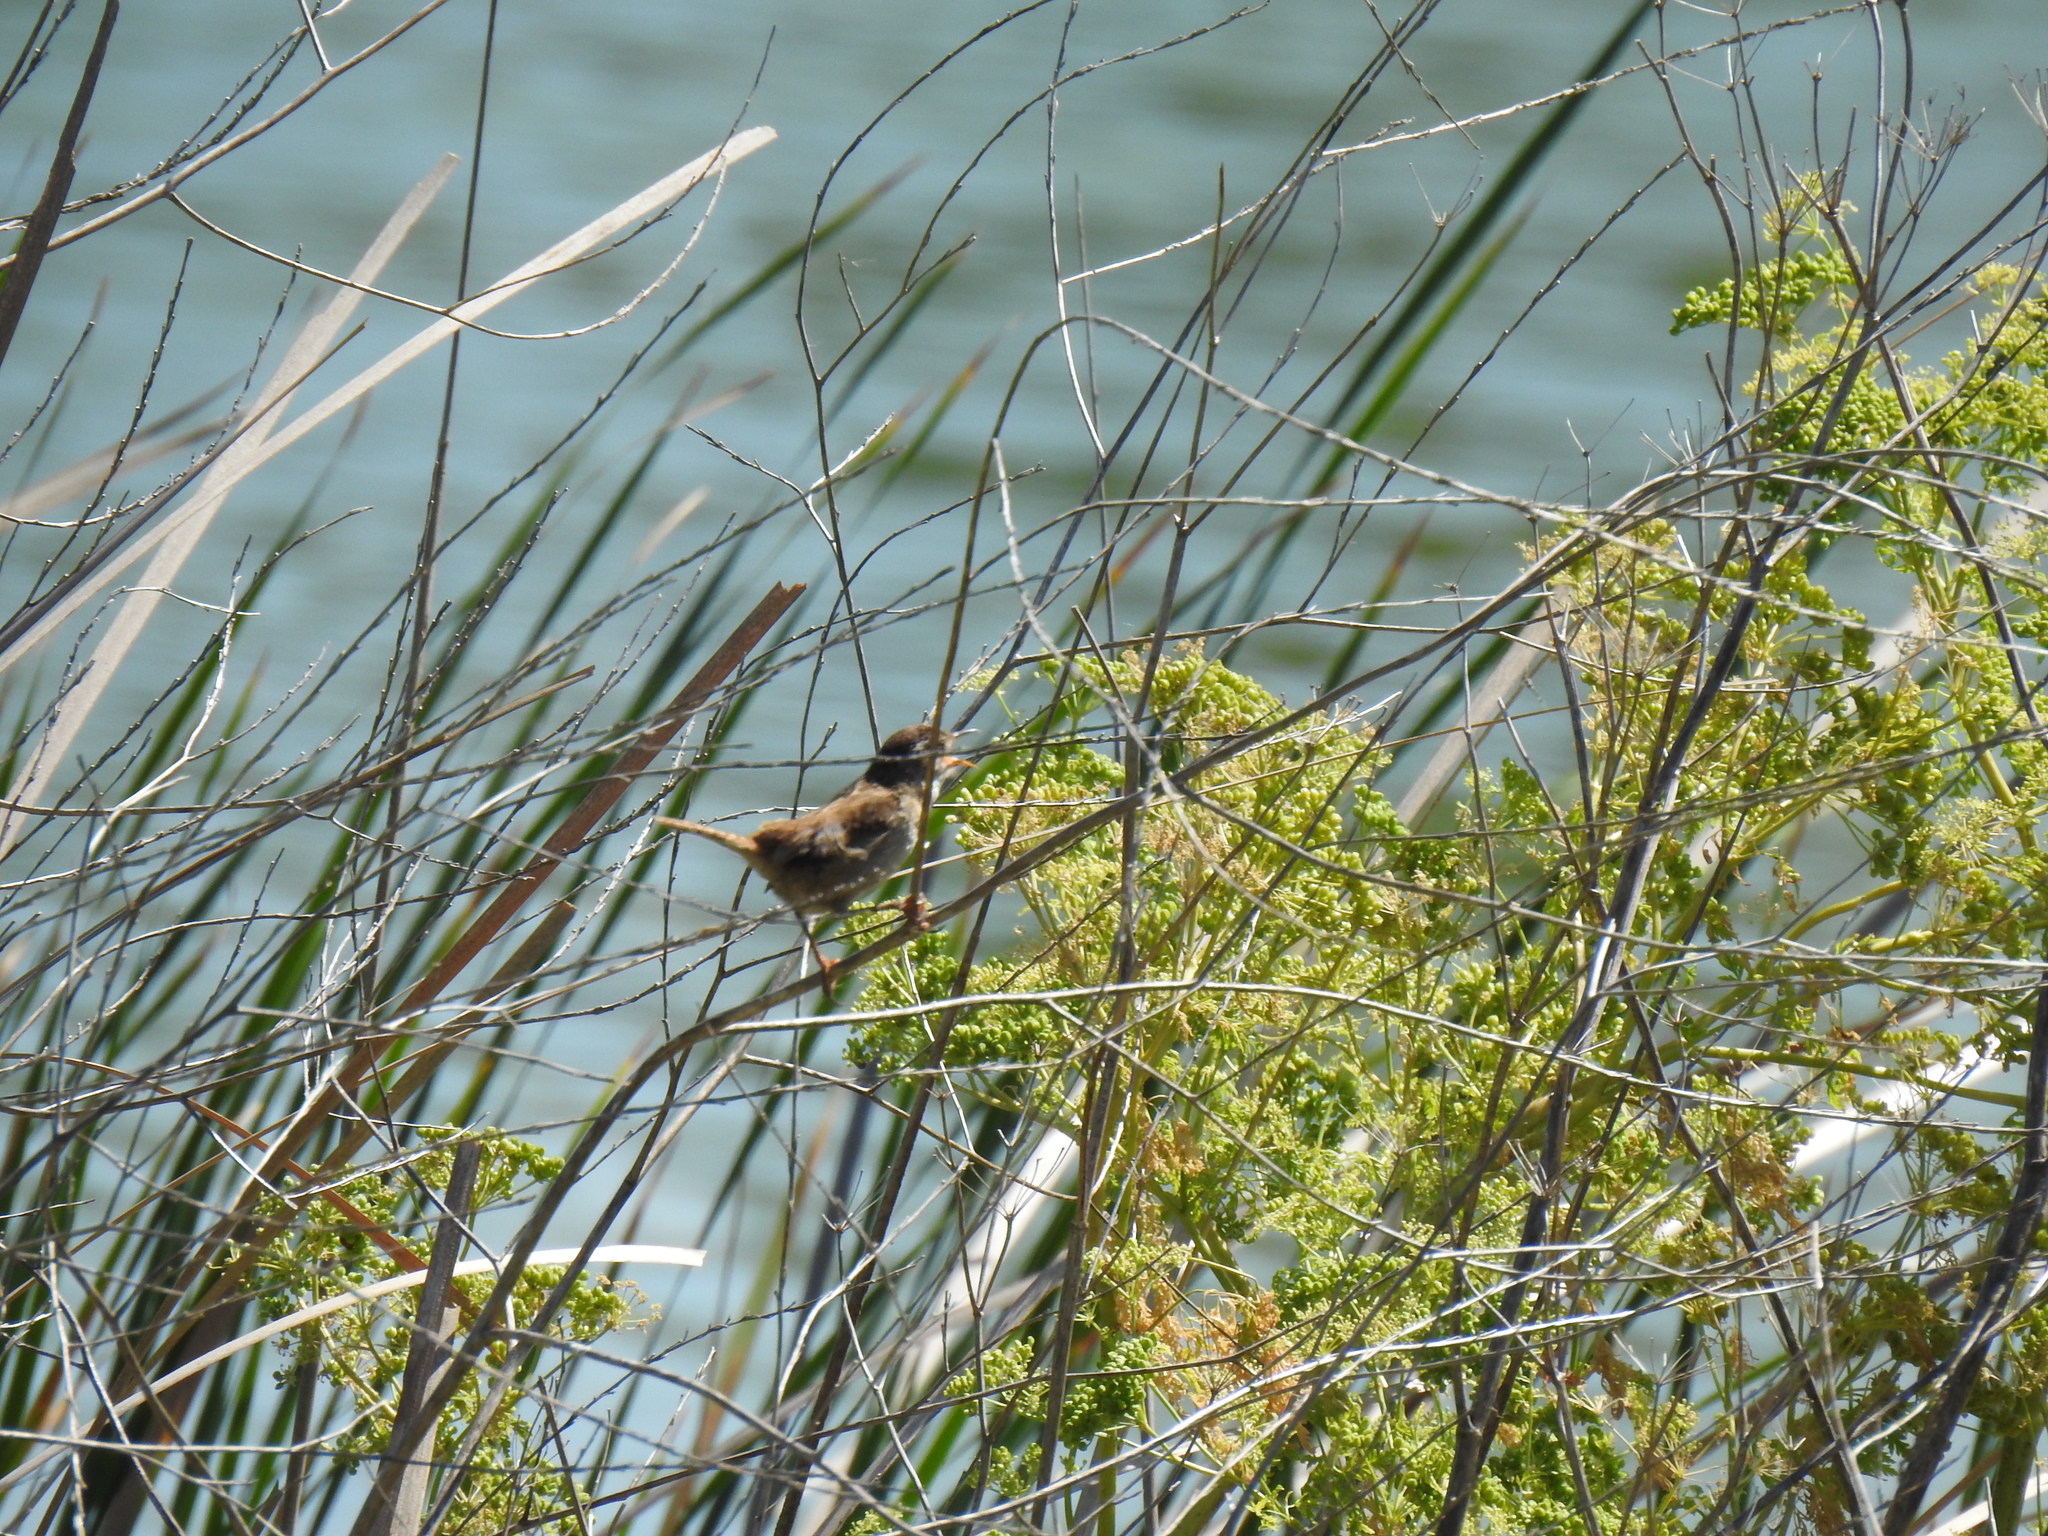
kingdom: Animalia
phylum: Chordata
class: Aves
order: Passeriformes
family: Troglodytidae
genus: Cistothorus
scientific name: Cistothorus palustris
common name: Marsh wren
